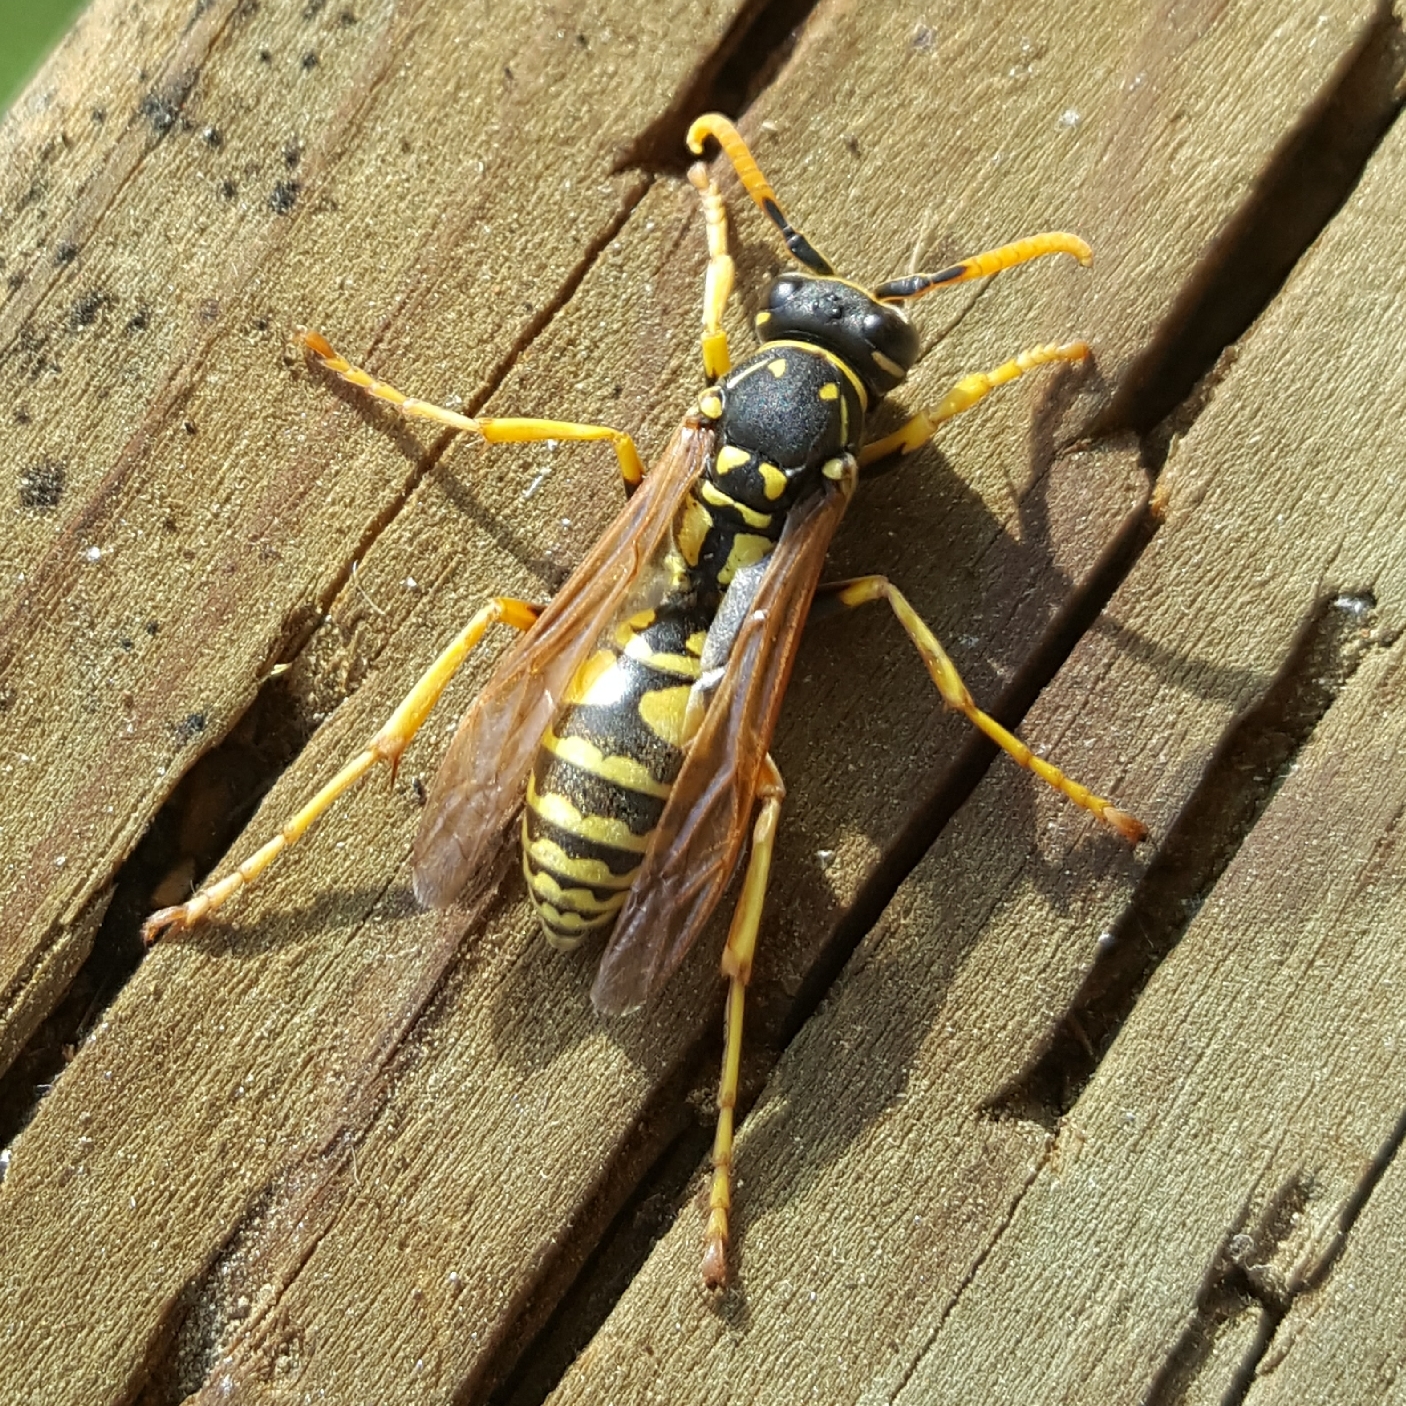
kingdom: Animalia
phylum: Arthropoda
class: Insecta
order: Hymenoptera
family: Eumenidae
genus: Polistes
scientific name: Polistes dominula
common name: Paper wasp
